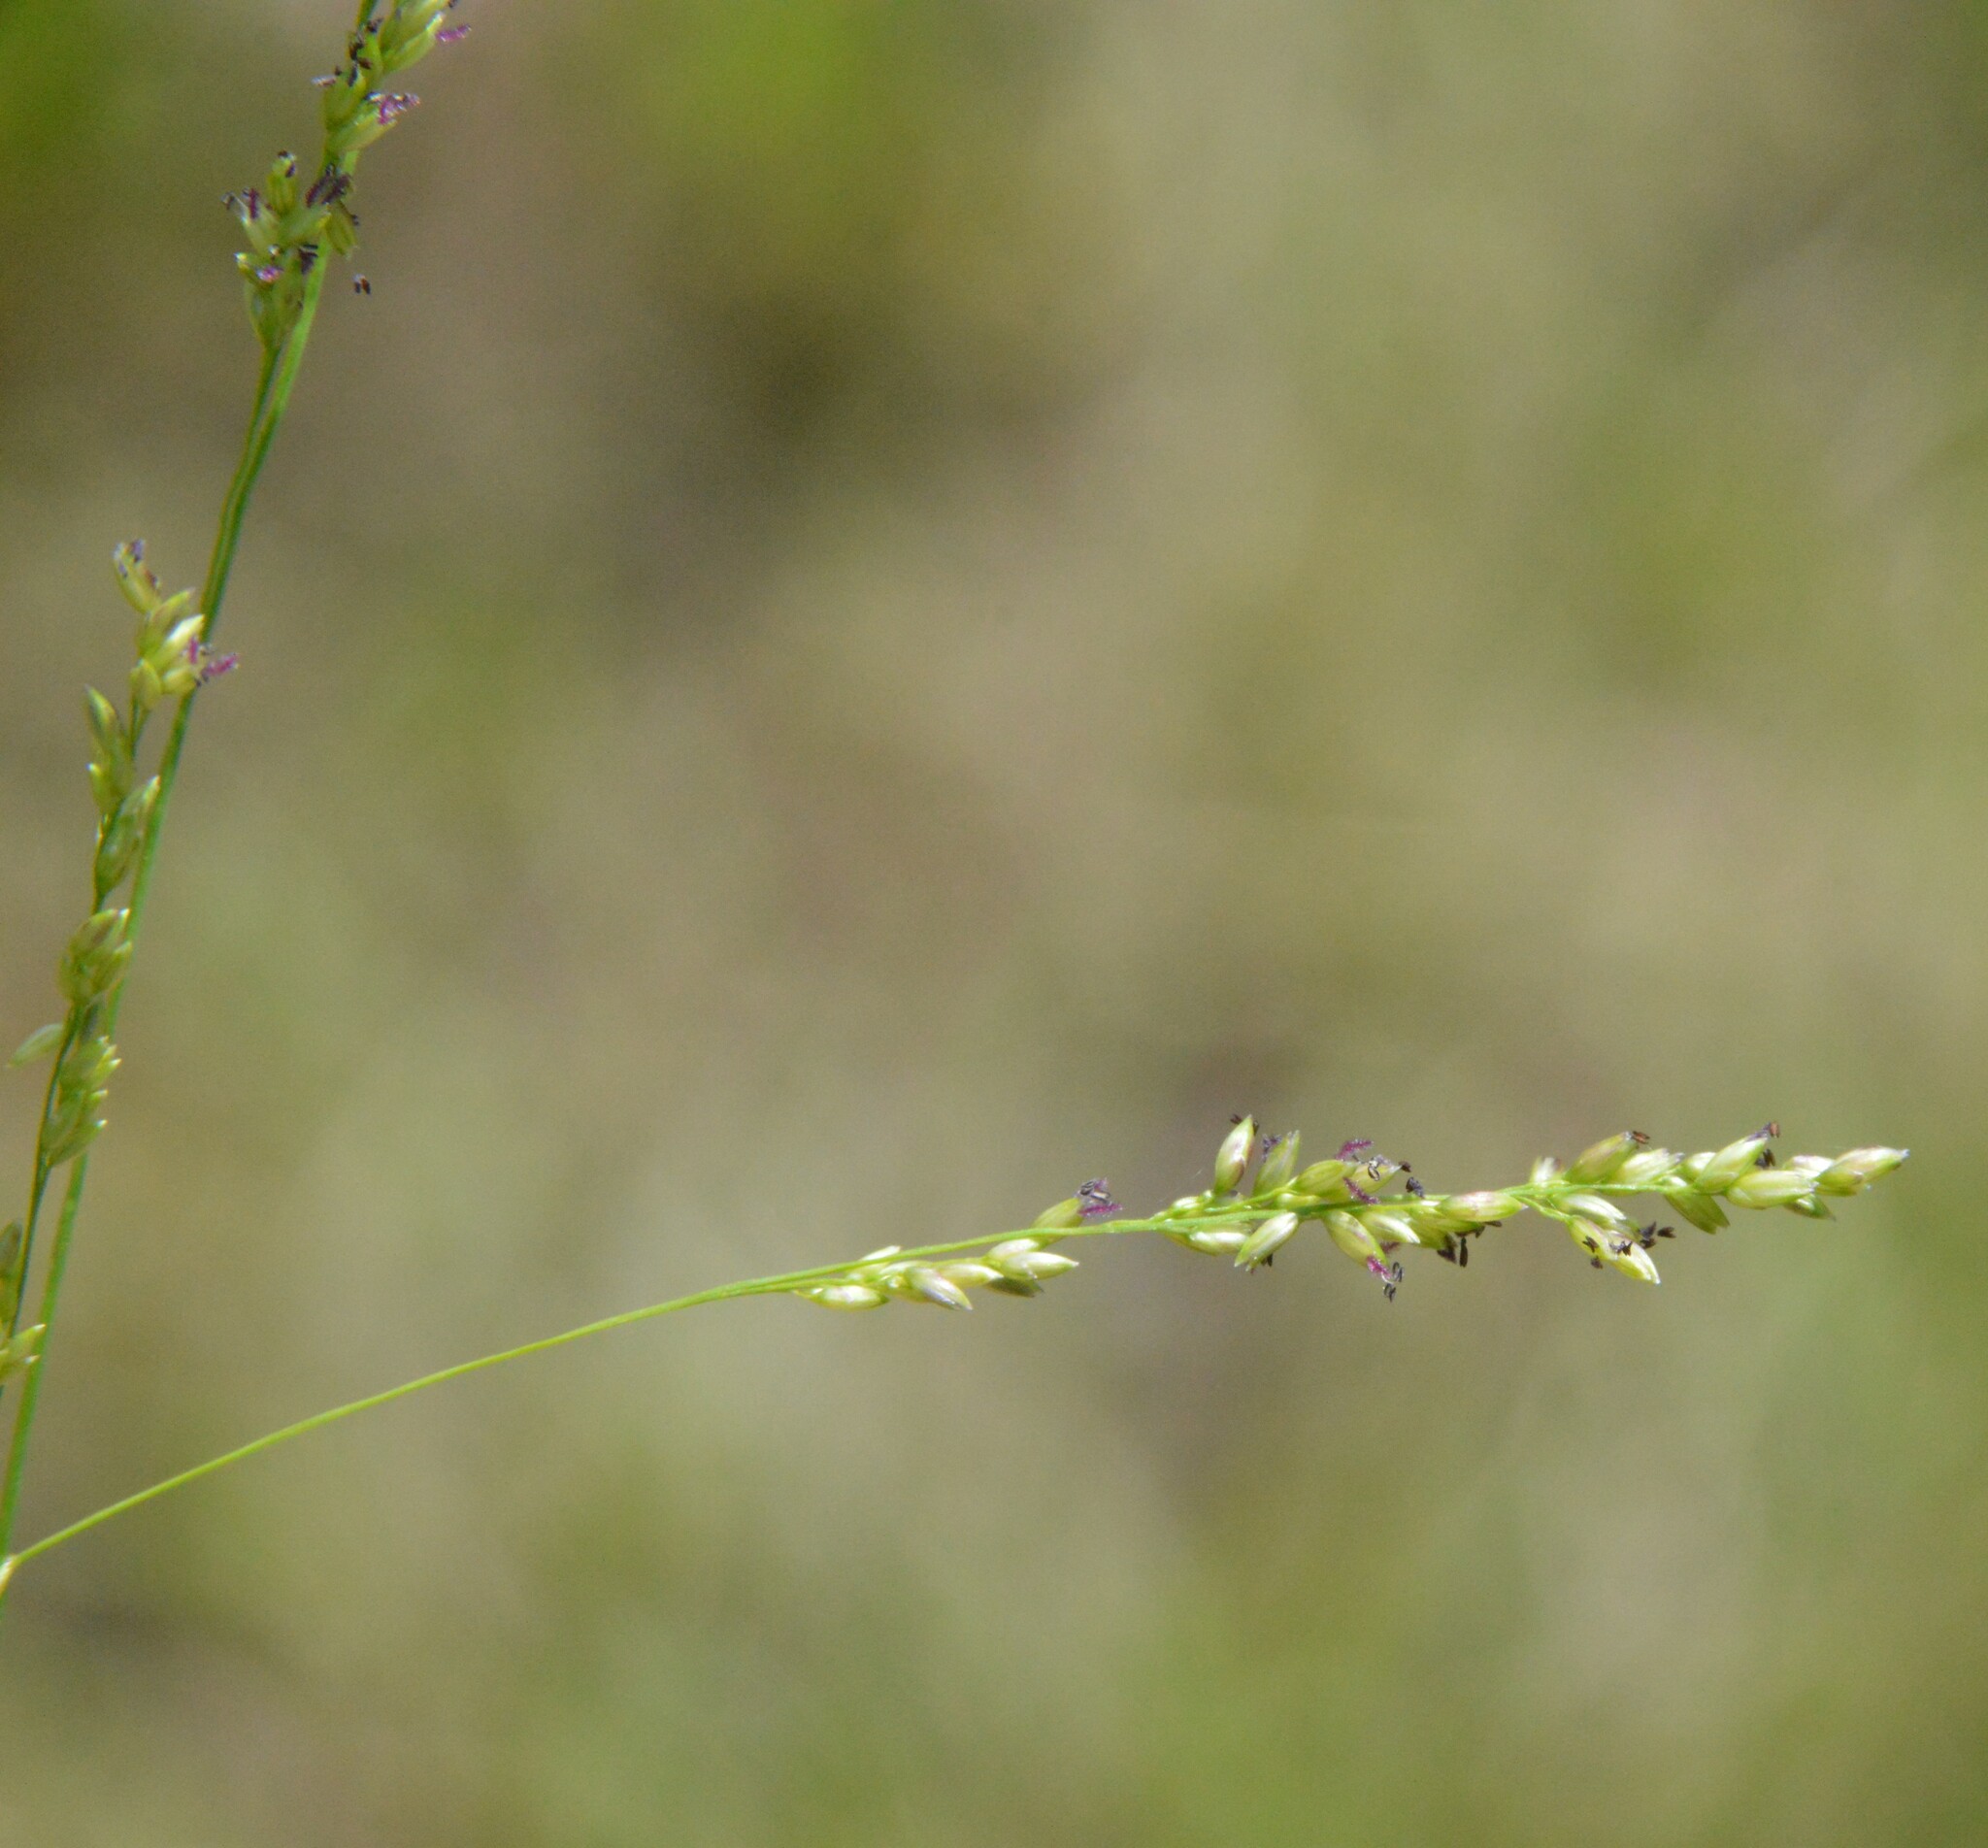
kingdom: Plantae
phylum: Tracheophyta
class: Liliopsida
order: Poales
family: Poaceae
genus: Steinchisma
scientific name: Steinchisma hians
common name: Gaping panic grass
